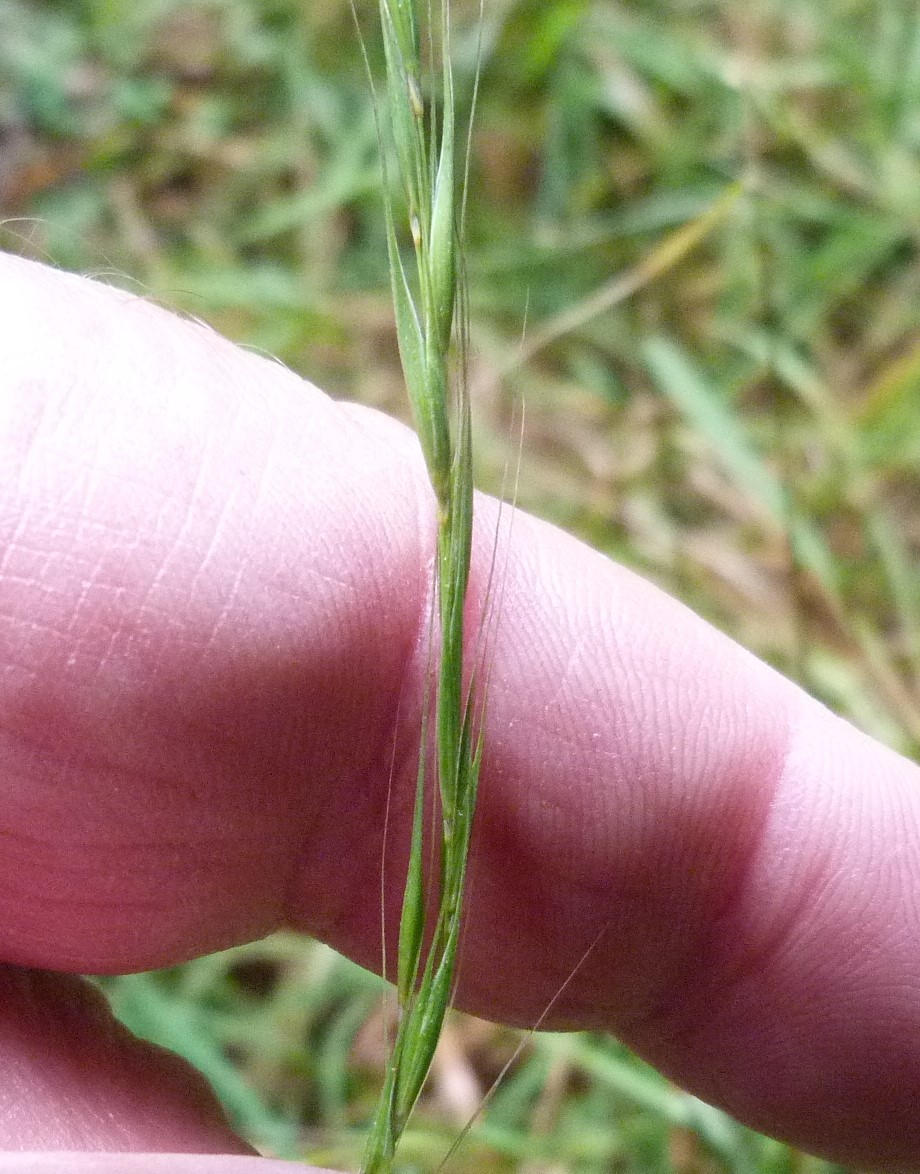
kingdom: Plantae
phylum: Tracheophyta
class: Liliopsida
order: Poales
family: Poaceae
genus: Microlaena
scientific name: Microlaena stipoides
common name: Meadow ricegrass
